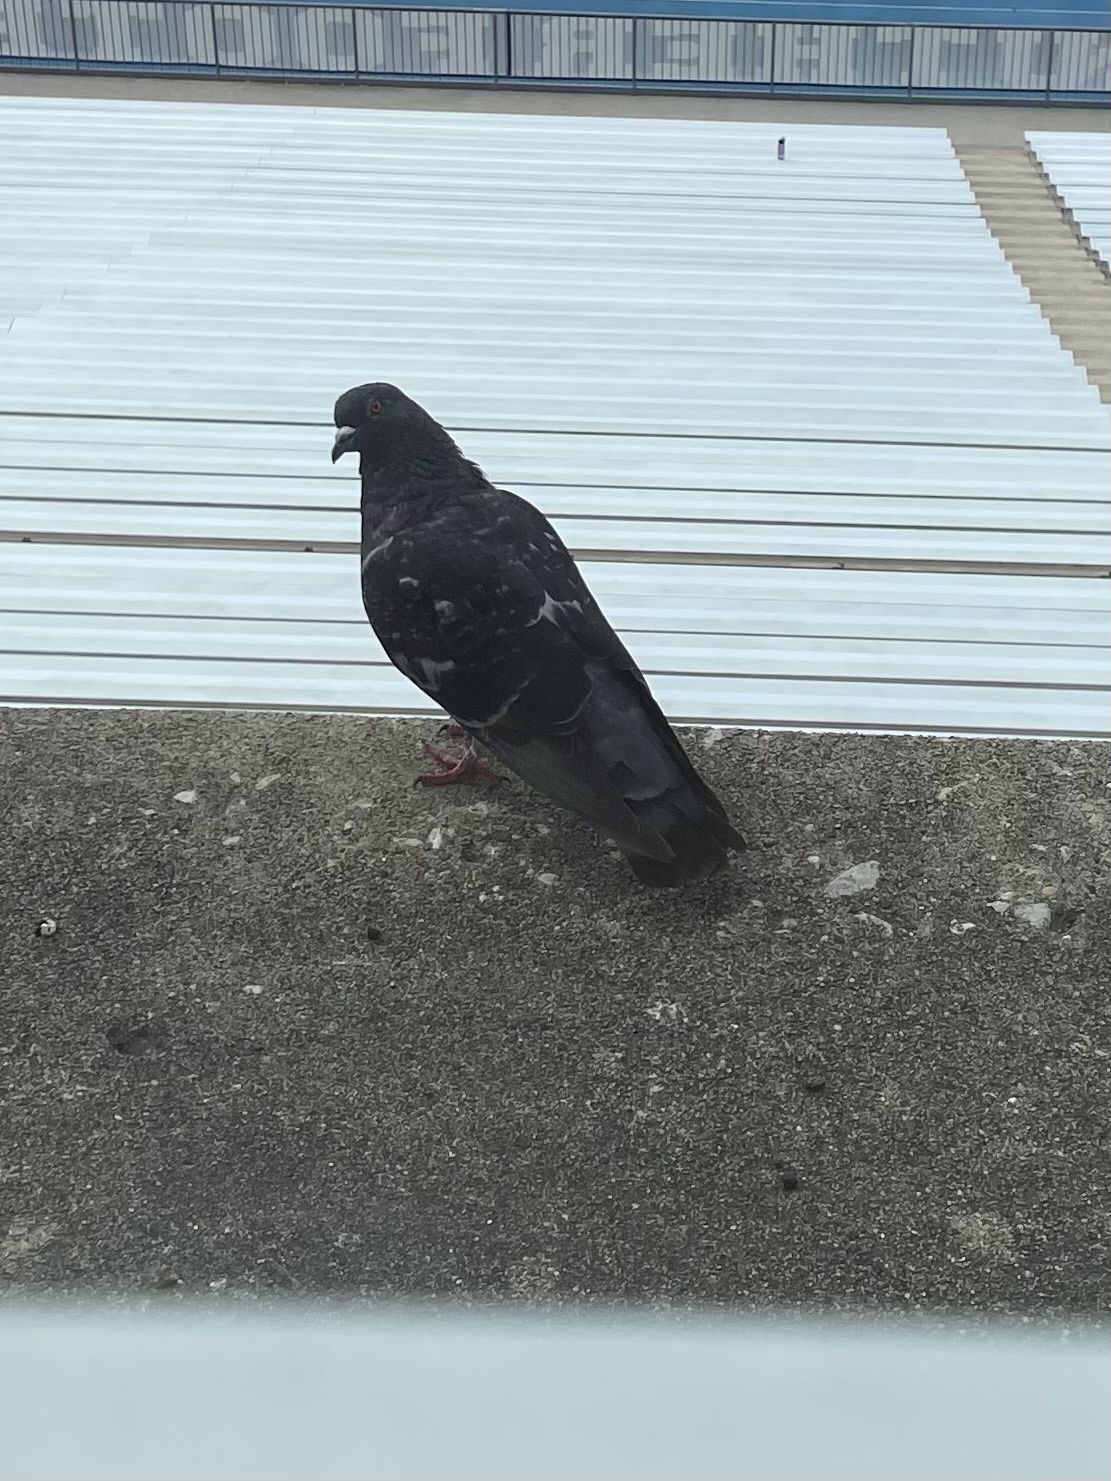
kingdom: Animalia
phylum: Chordata
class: Aves
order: Columbiformes
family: Columbidae
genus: Columba
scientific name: Columba livia
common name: Rock pigeon
